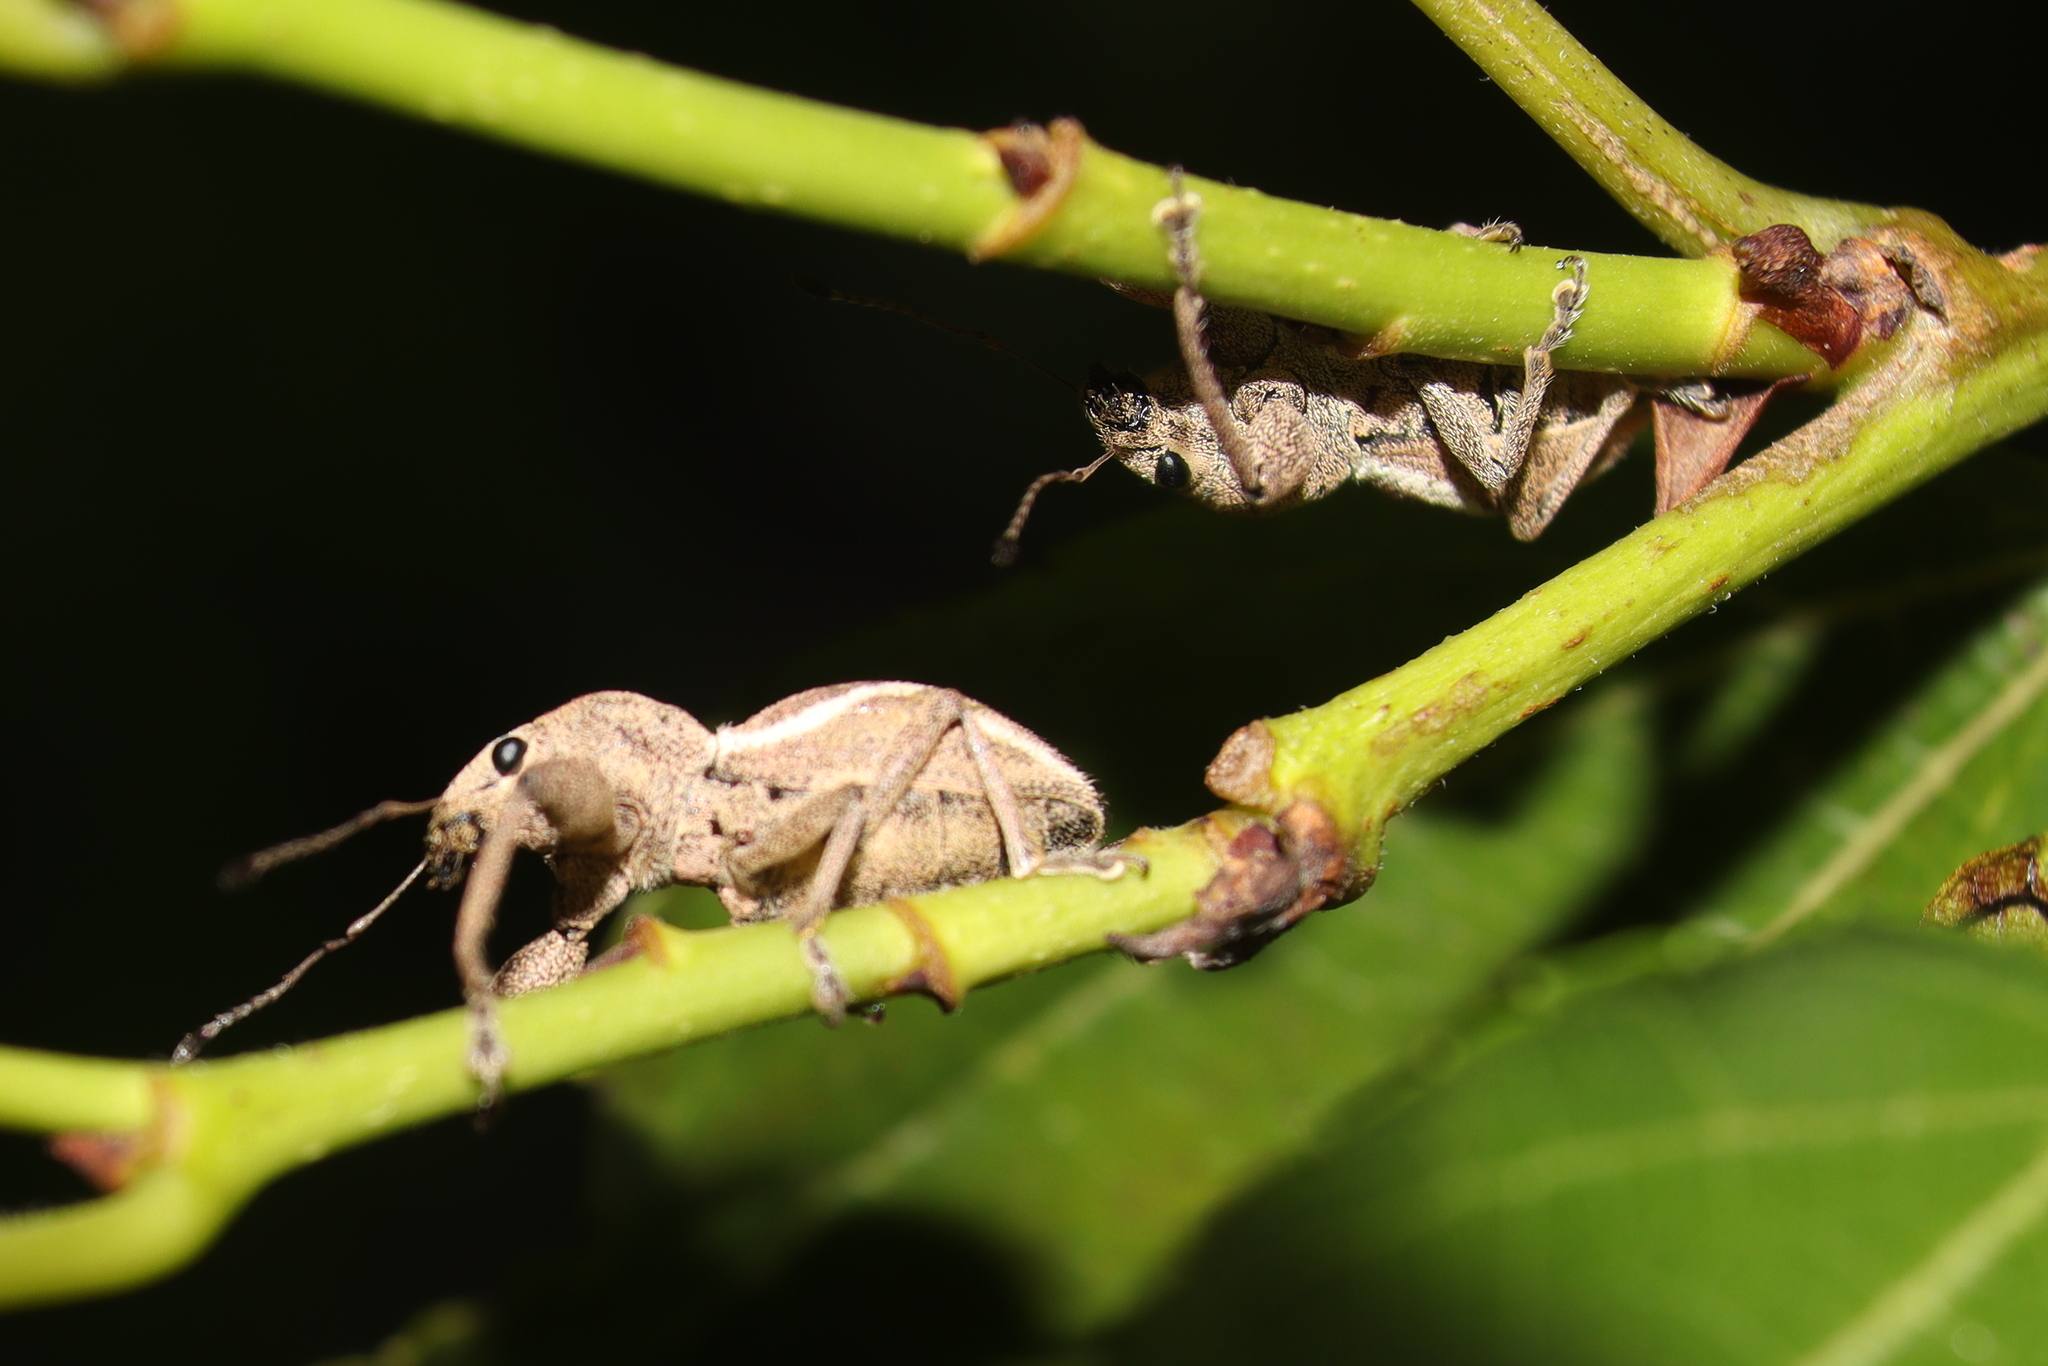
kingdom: Animalia
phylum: Arthropoda
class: Insecta
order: Coleoptera
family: Curculionidae
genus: Alceis
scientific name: Alceis curtus
